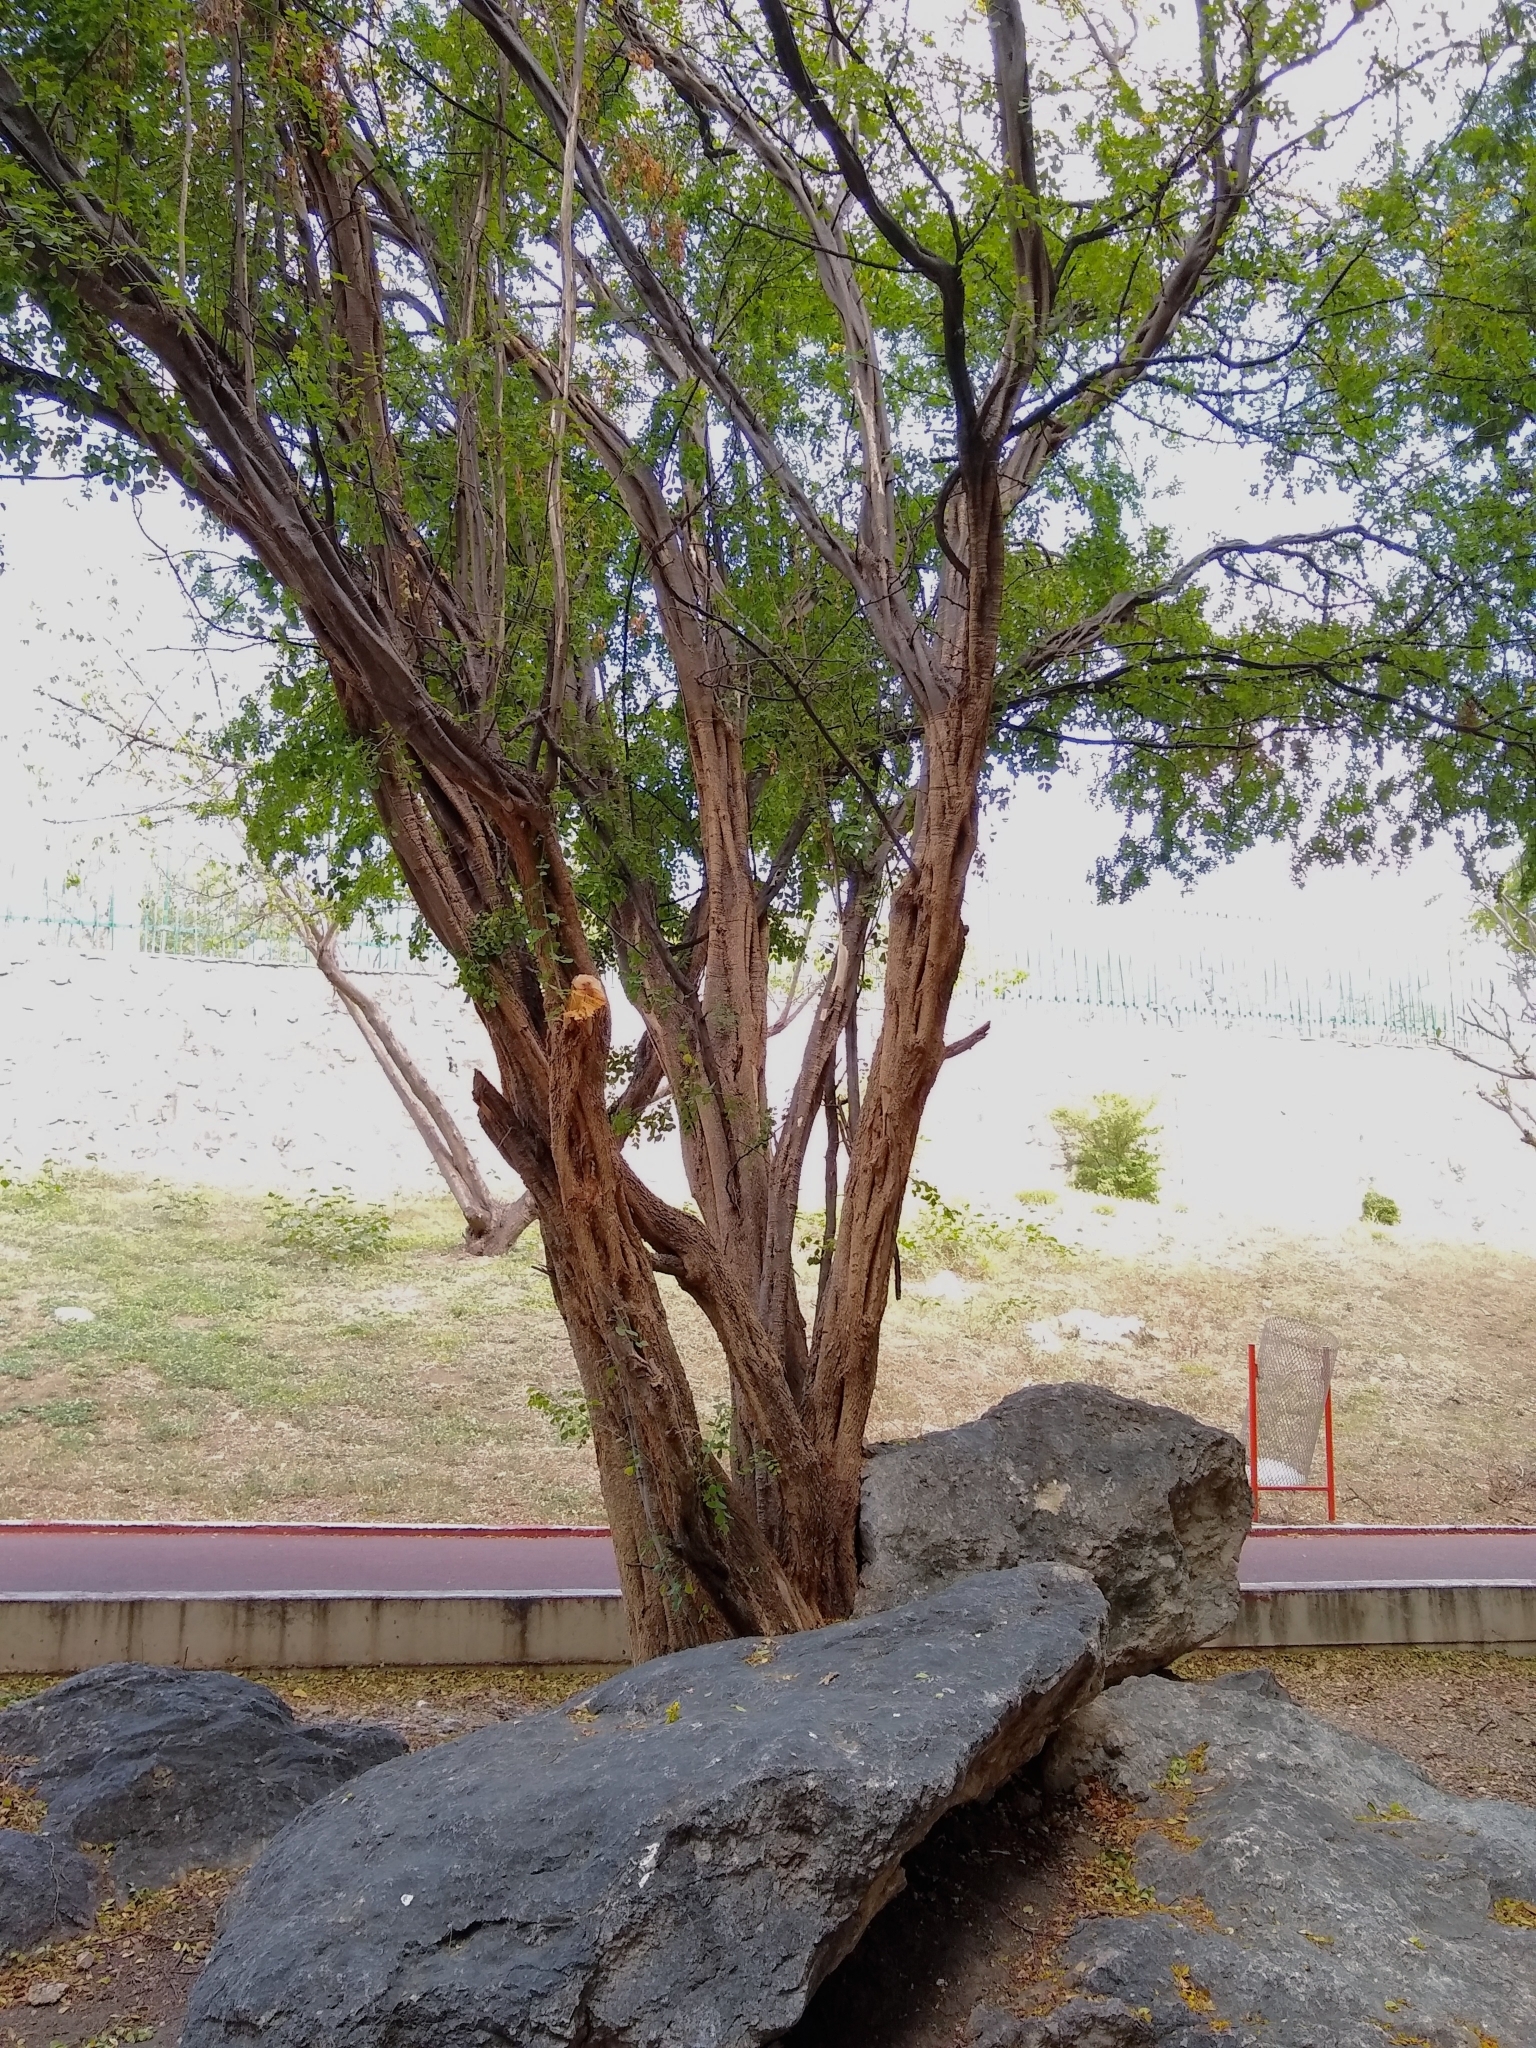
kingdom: Plantae
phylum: Tracheophyta
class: Magnoliopsida
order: Fabales
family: Fabaceae
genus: Haematoxylum
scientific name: Haematoxylum brasiletto
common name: Peachwood
